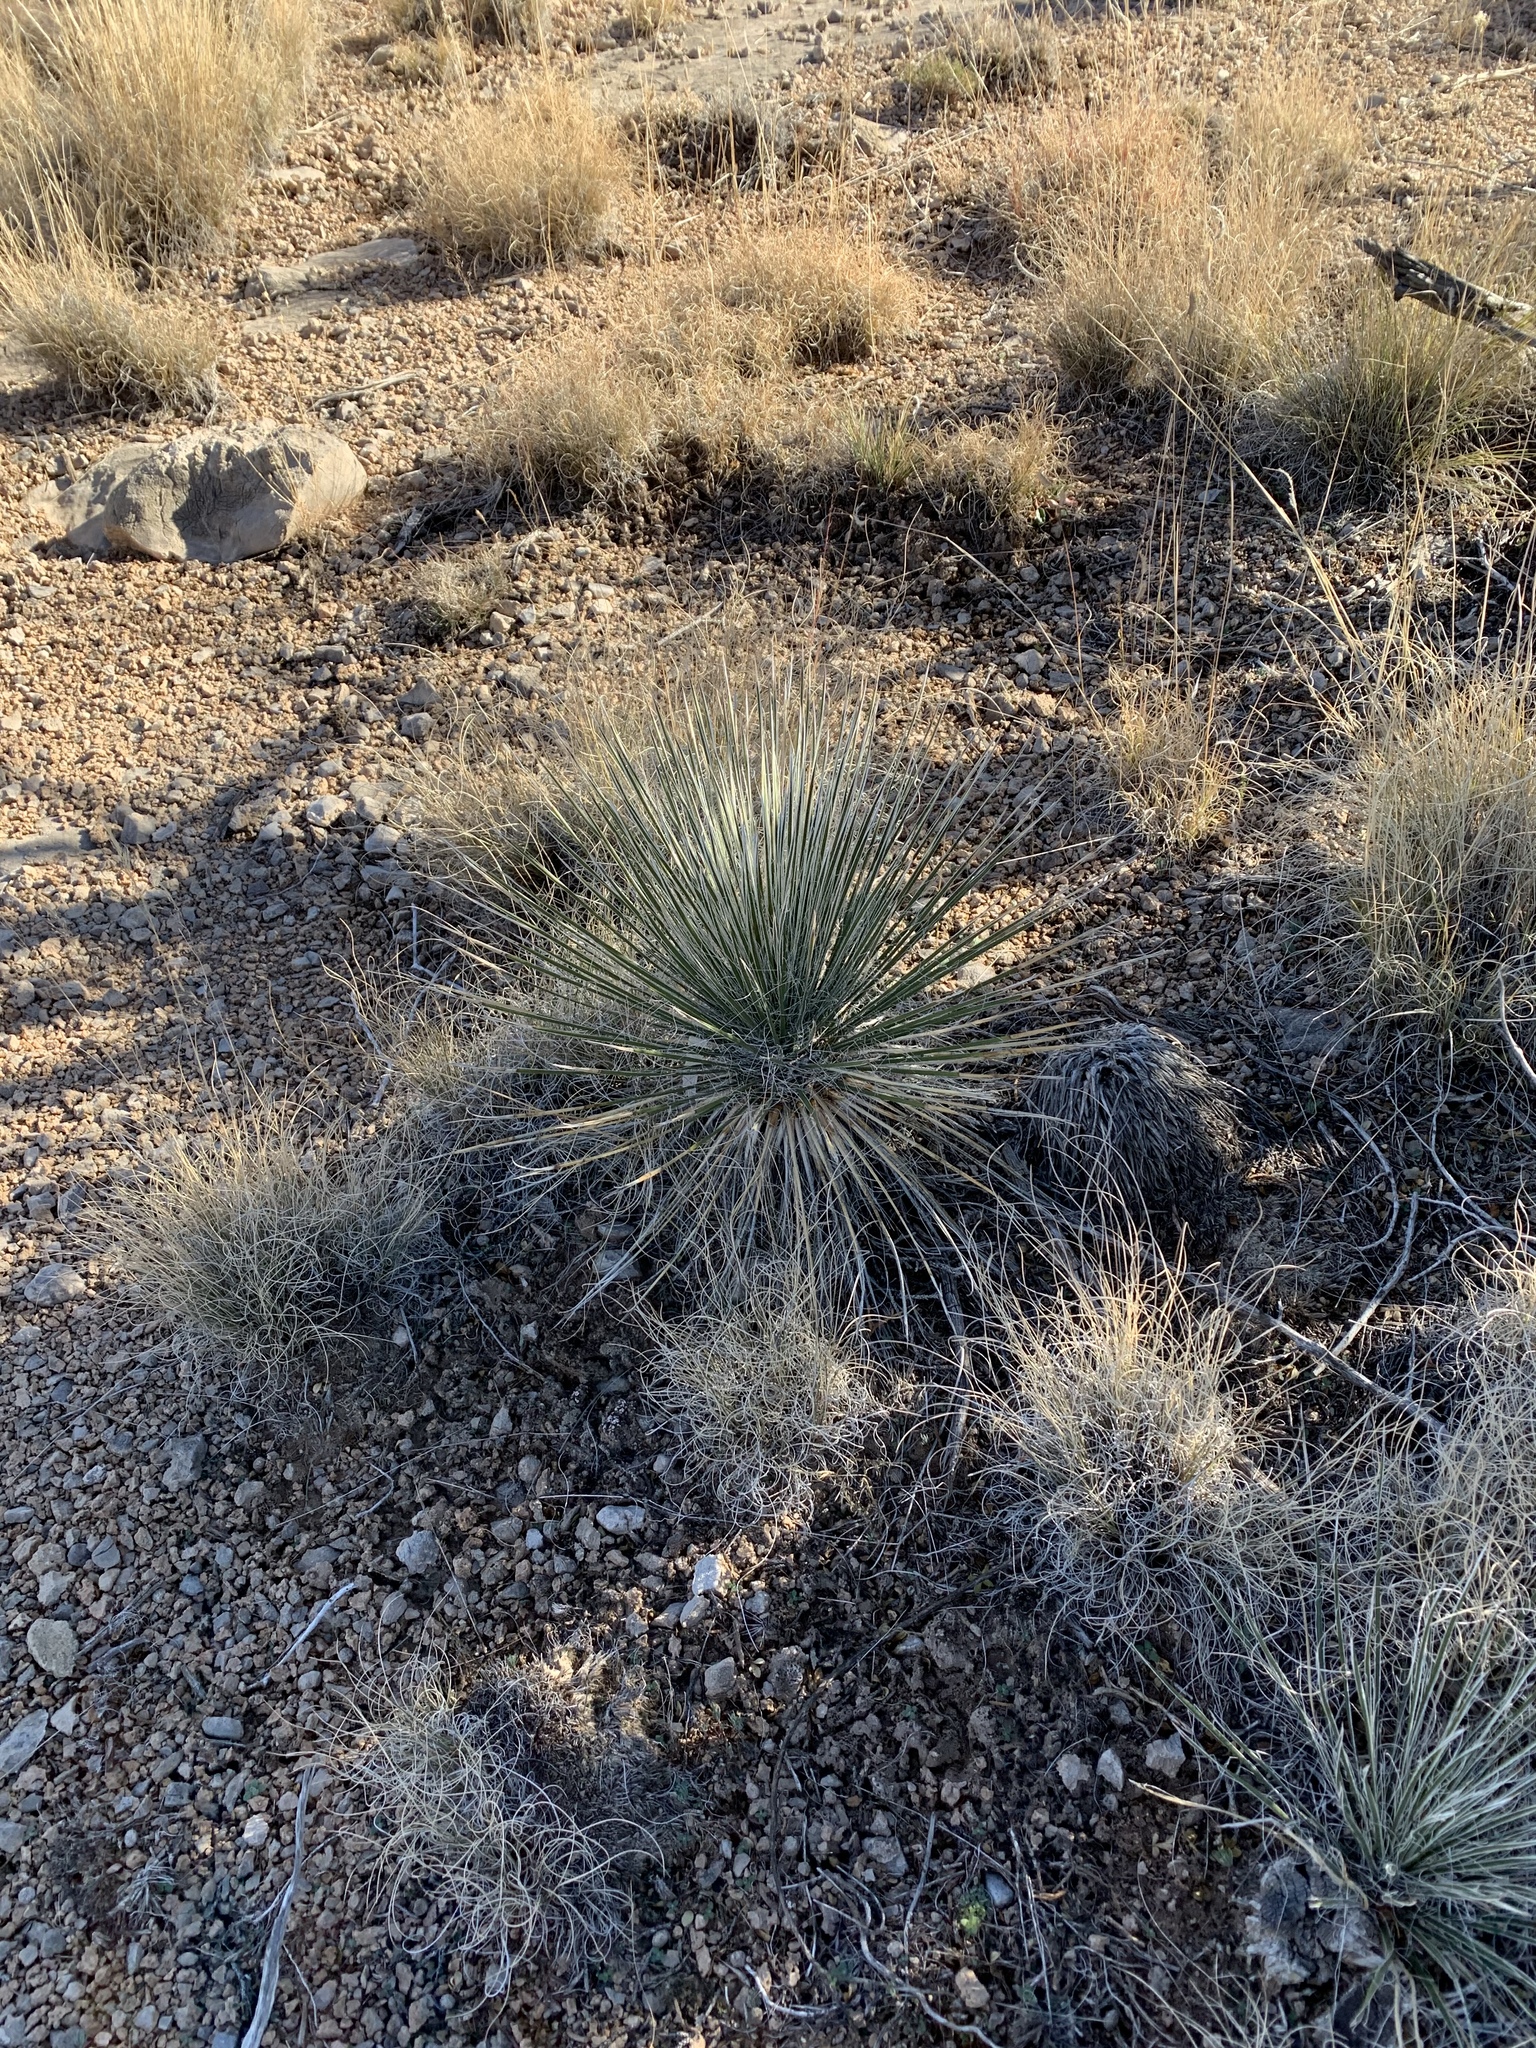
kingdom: Plantae
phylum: Tracheophyta
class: Liliopsida
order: Asparagales
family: Asparagaceae
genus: Yucca
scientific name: Yucca elata
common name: Palmella
